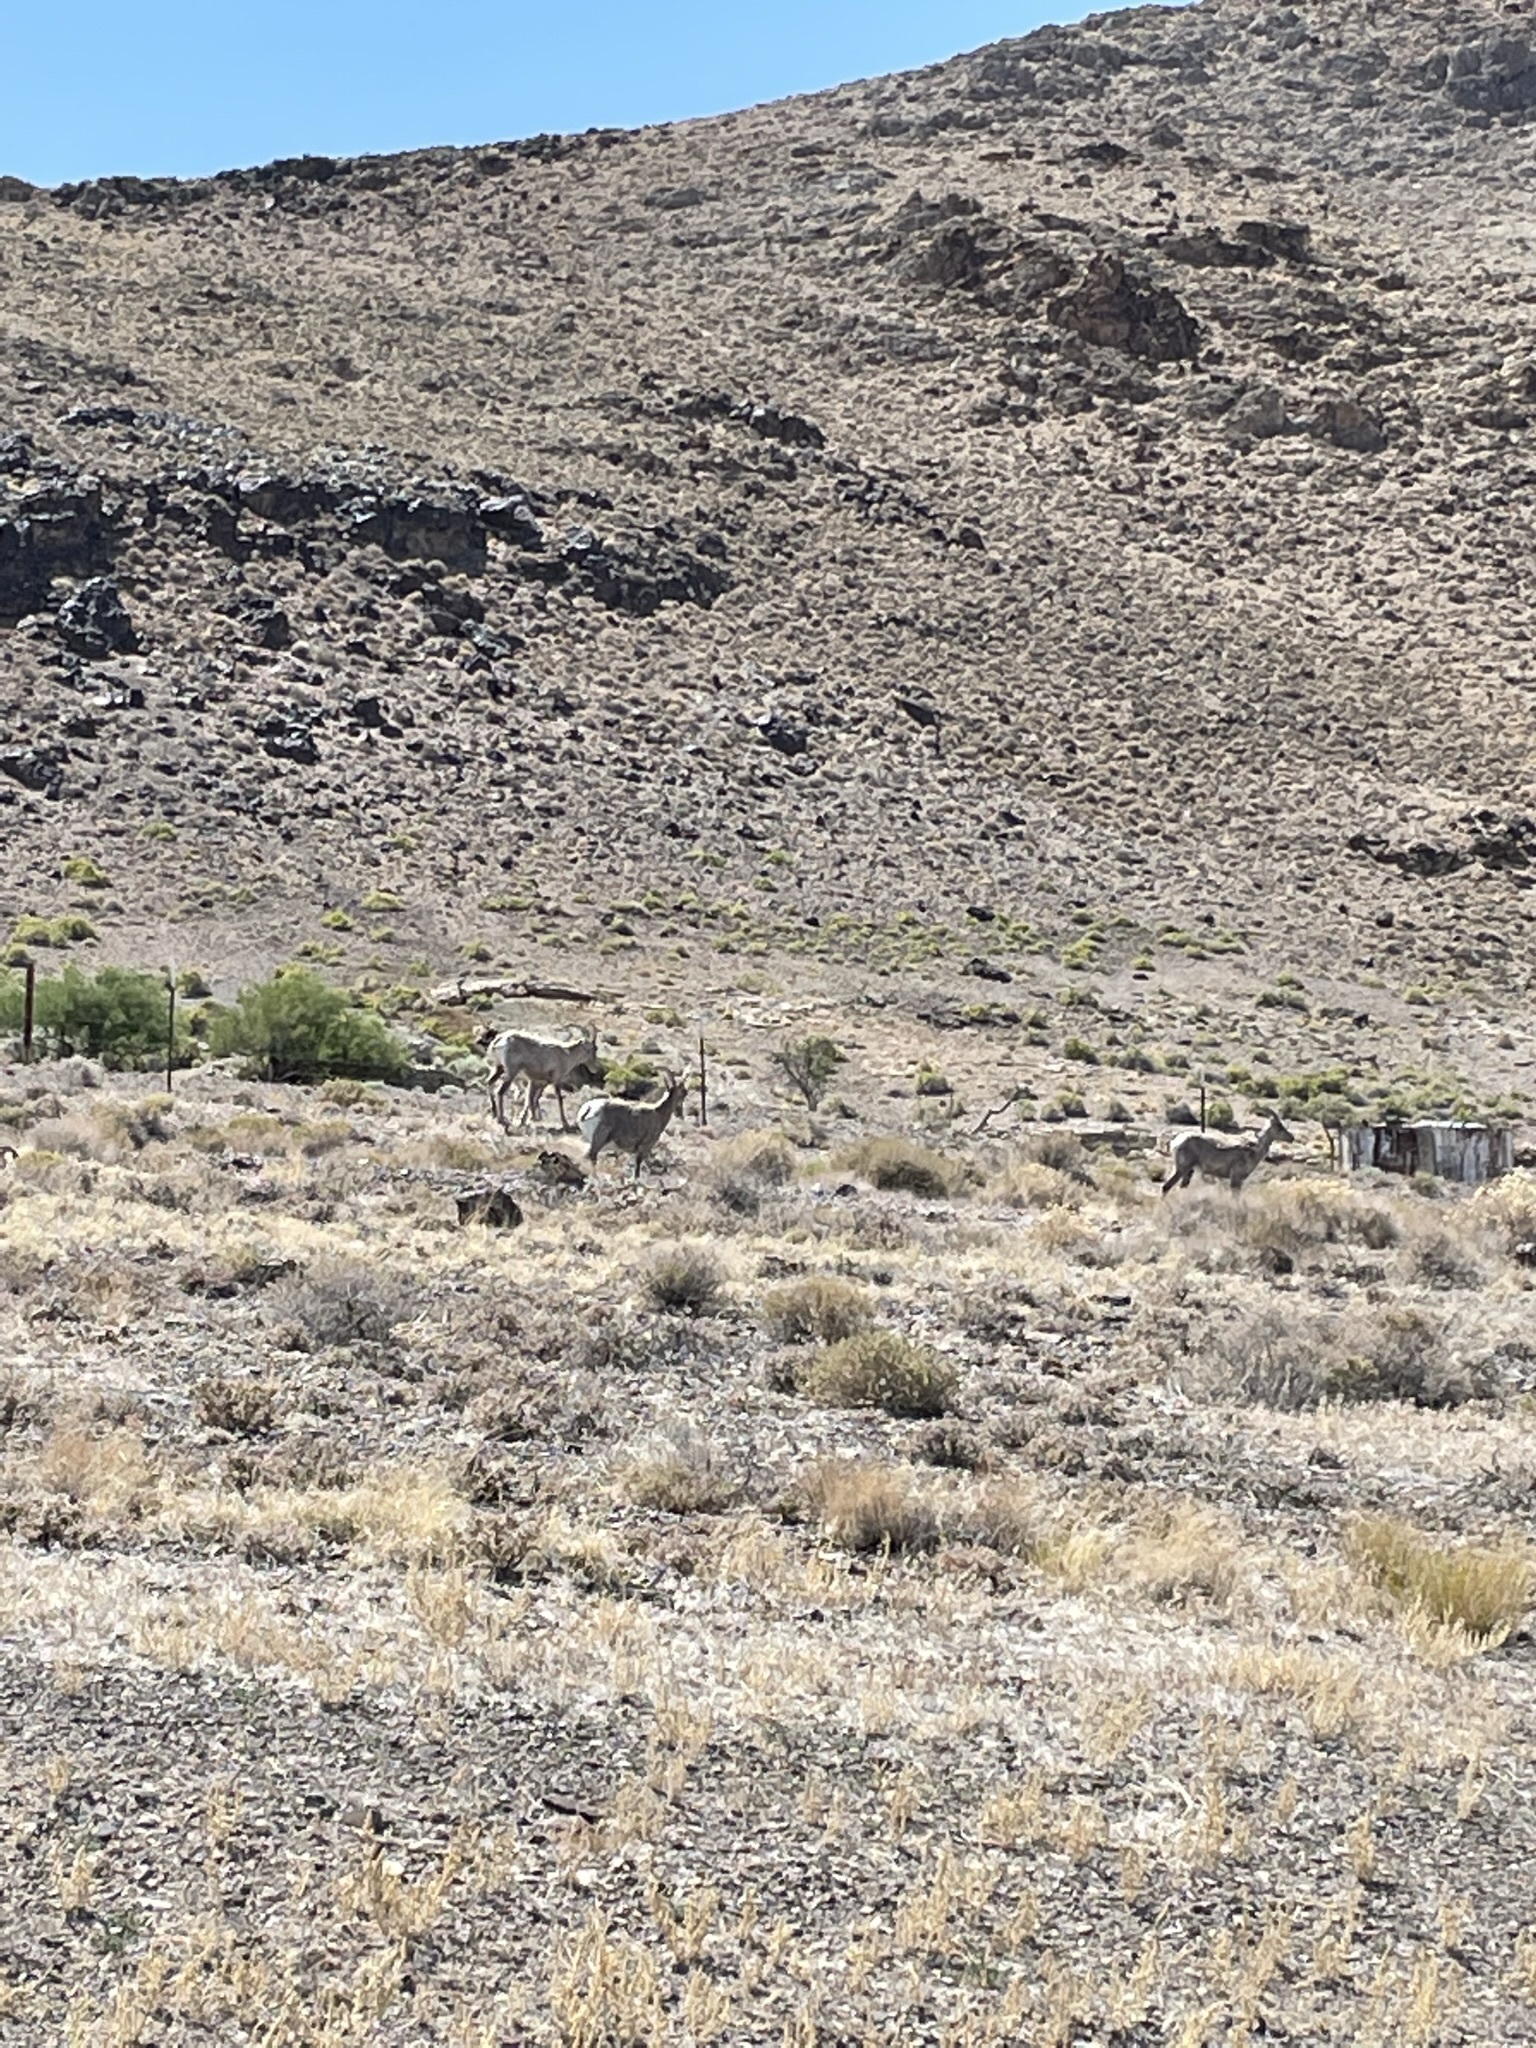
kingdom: Animalia
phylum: Chordata
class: Mammalia
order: Artiodactyla
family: Bovidae
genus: Ovis
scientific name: Ovis canadensis
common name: Bighorn sheep
